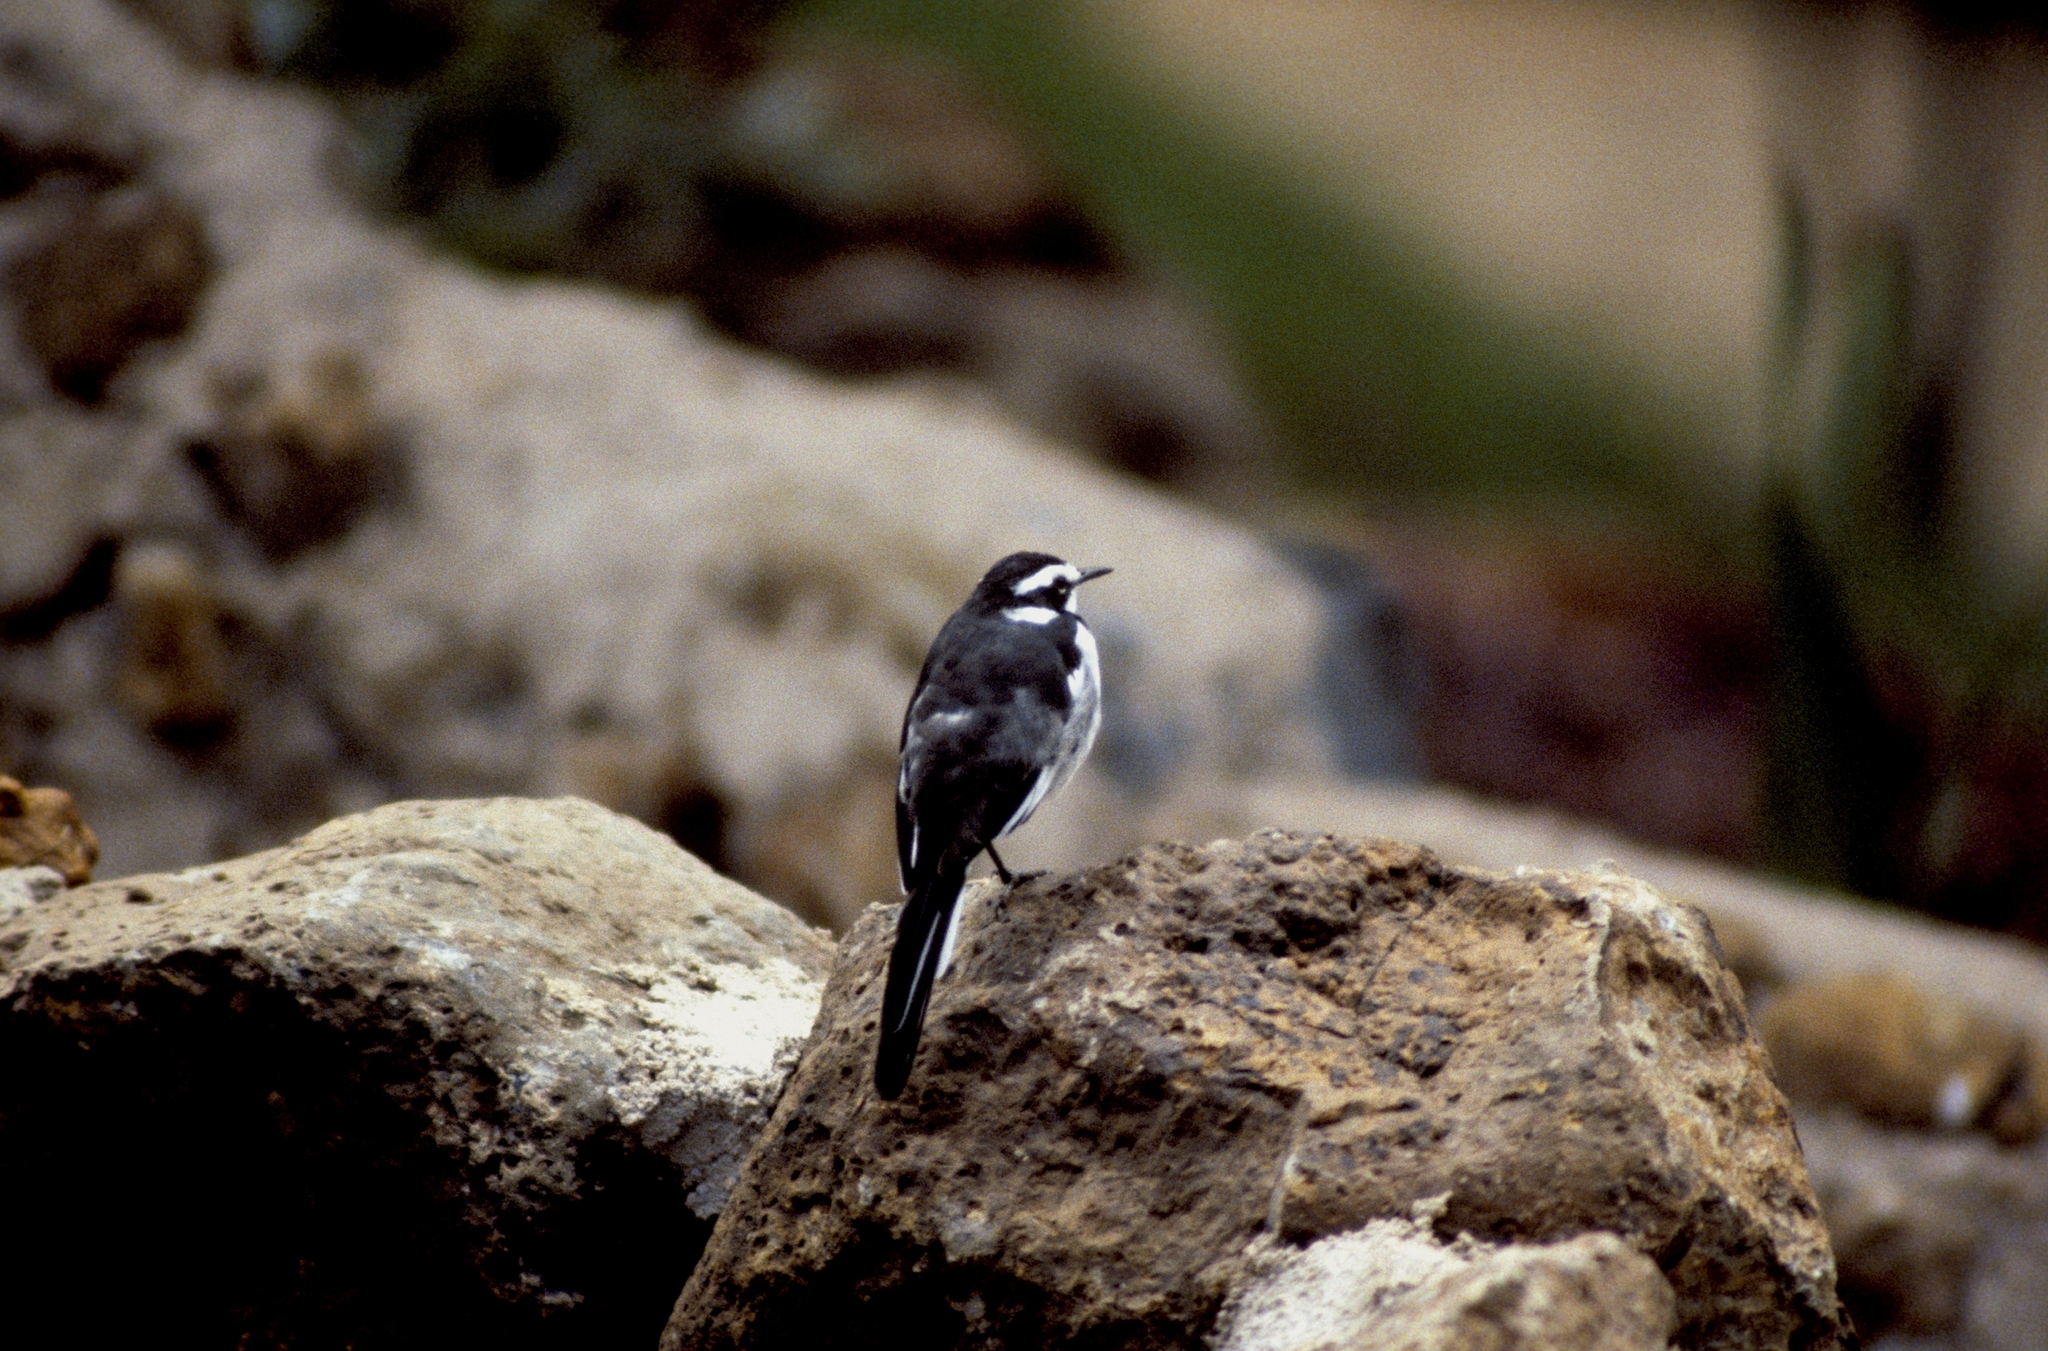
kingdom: Animalia
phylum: Chordata
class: Aves
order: Passeriformes
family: Motacillidae
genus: Motacilla
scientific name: Motacilla aguimp
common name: African pied wagtail
